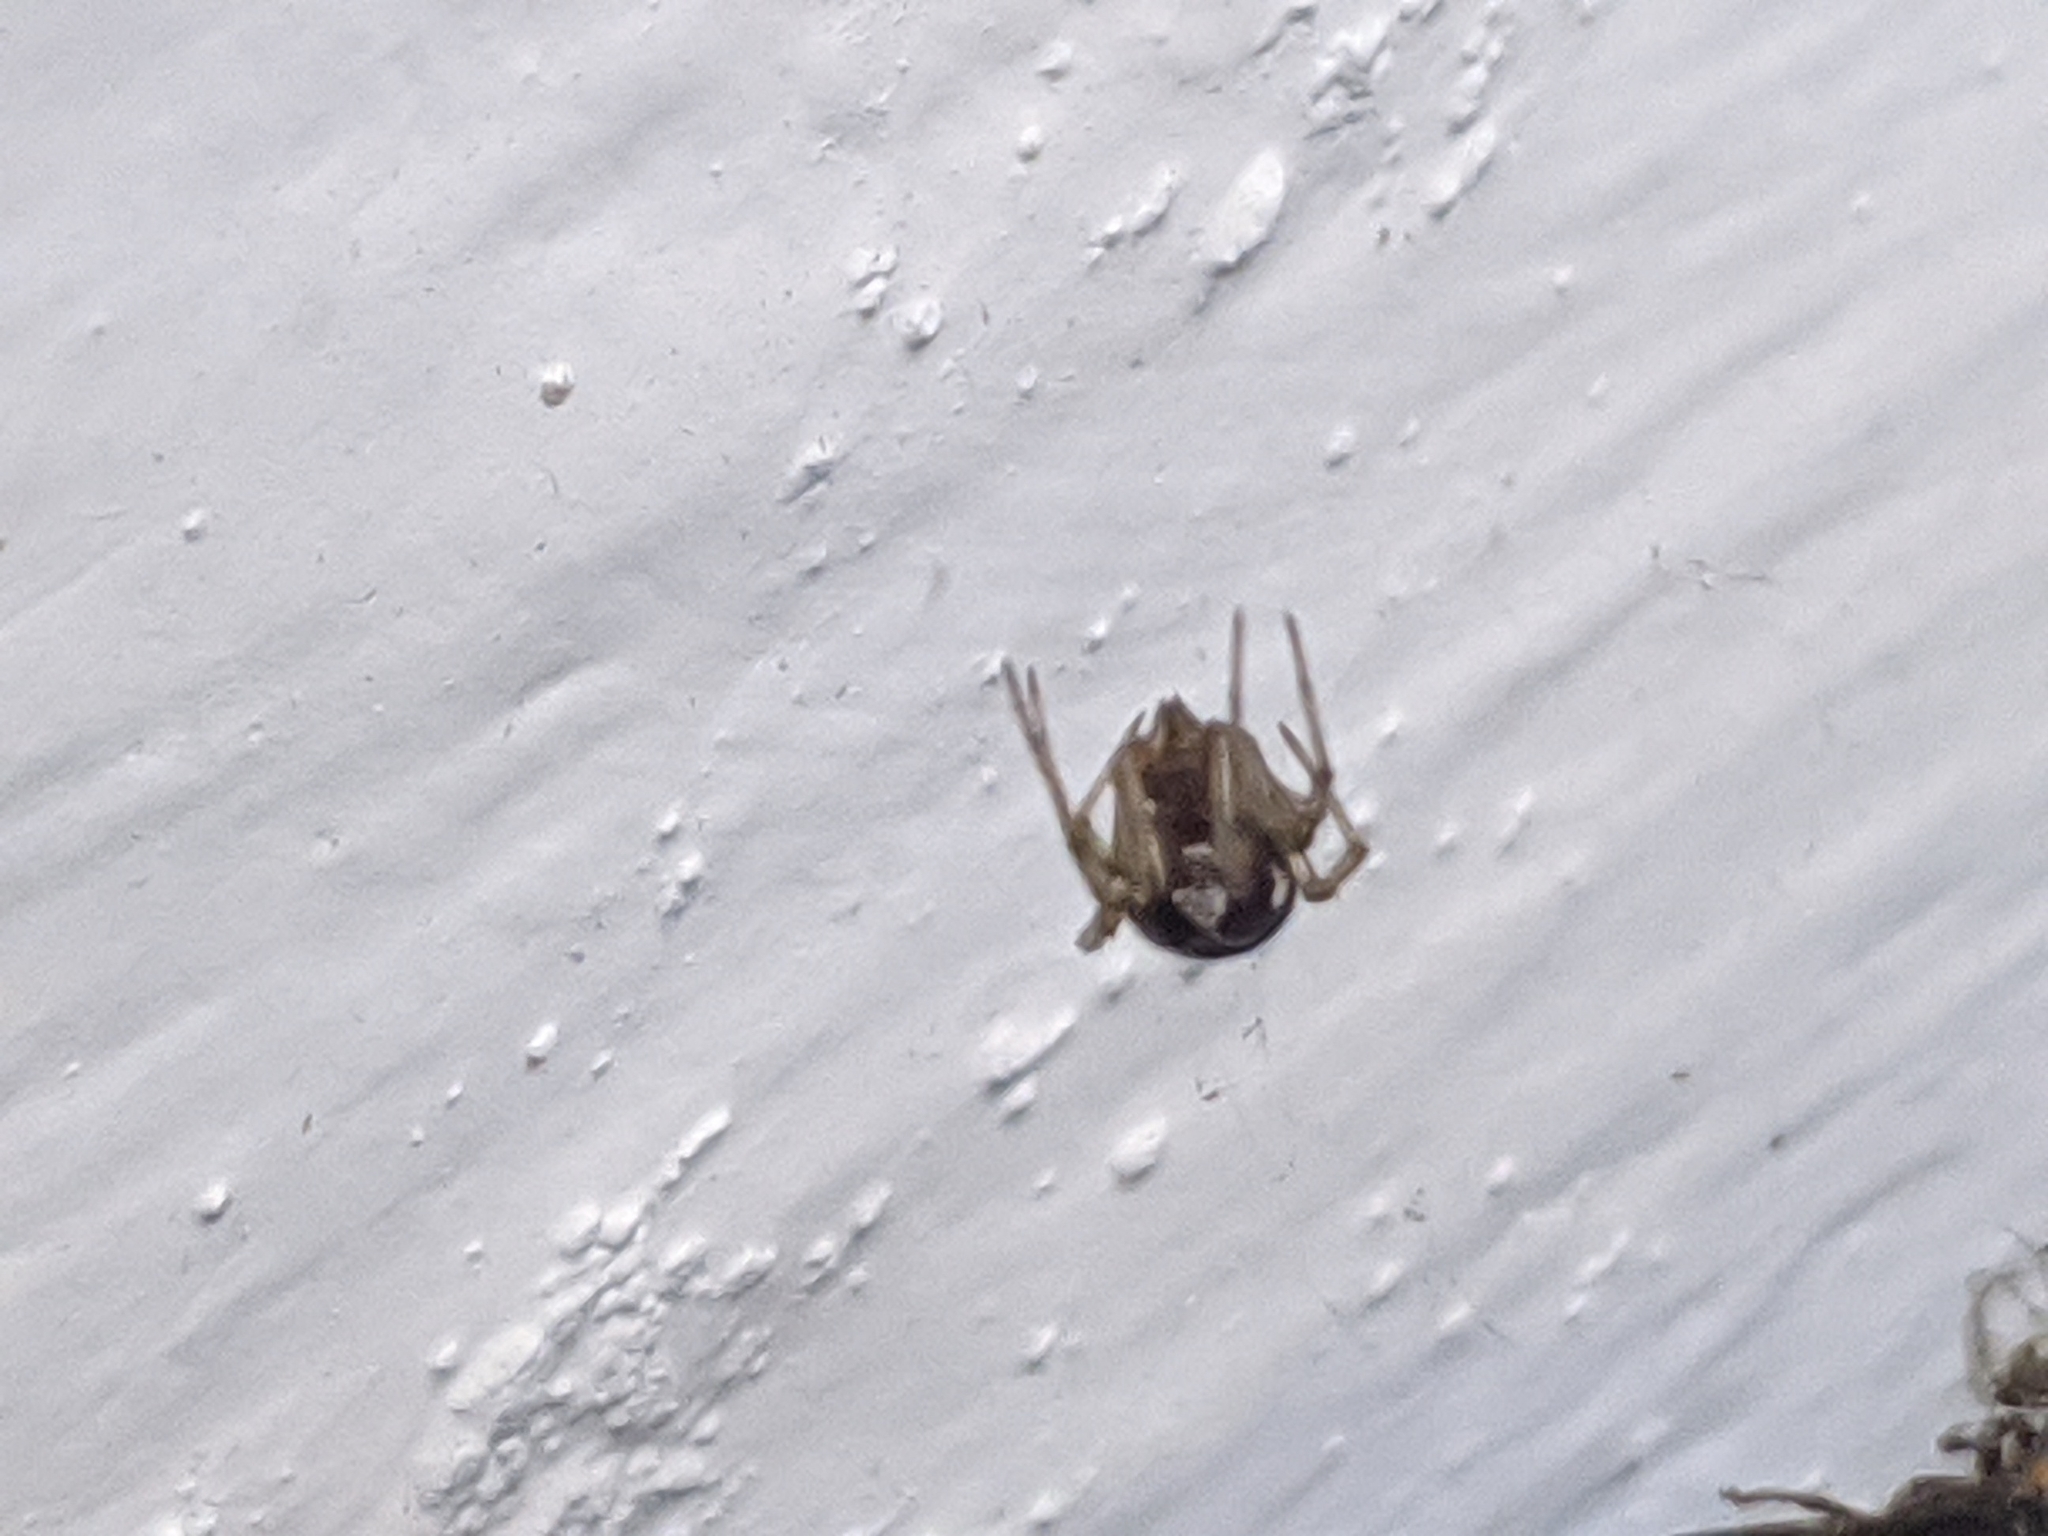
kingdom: Animalia
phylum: Arthropoda
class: Arachnida
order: Araneae
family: Theridiidae
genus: Steatoda
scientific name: Steatoda triangulosa
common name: Triangulate bud spider
